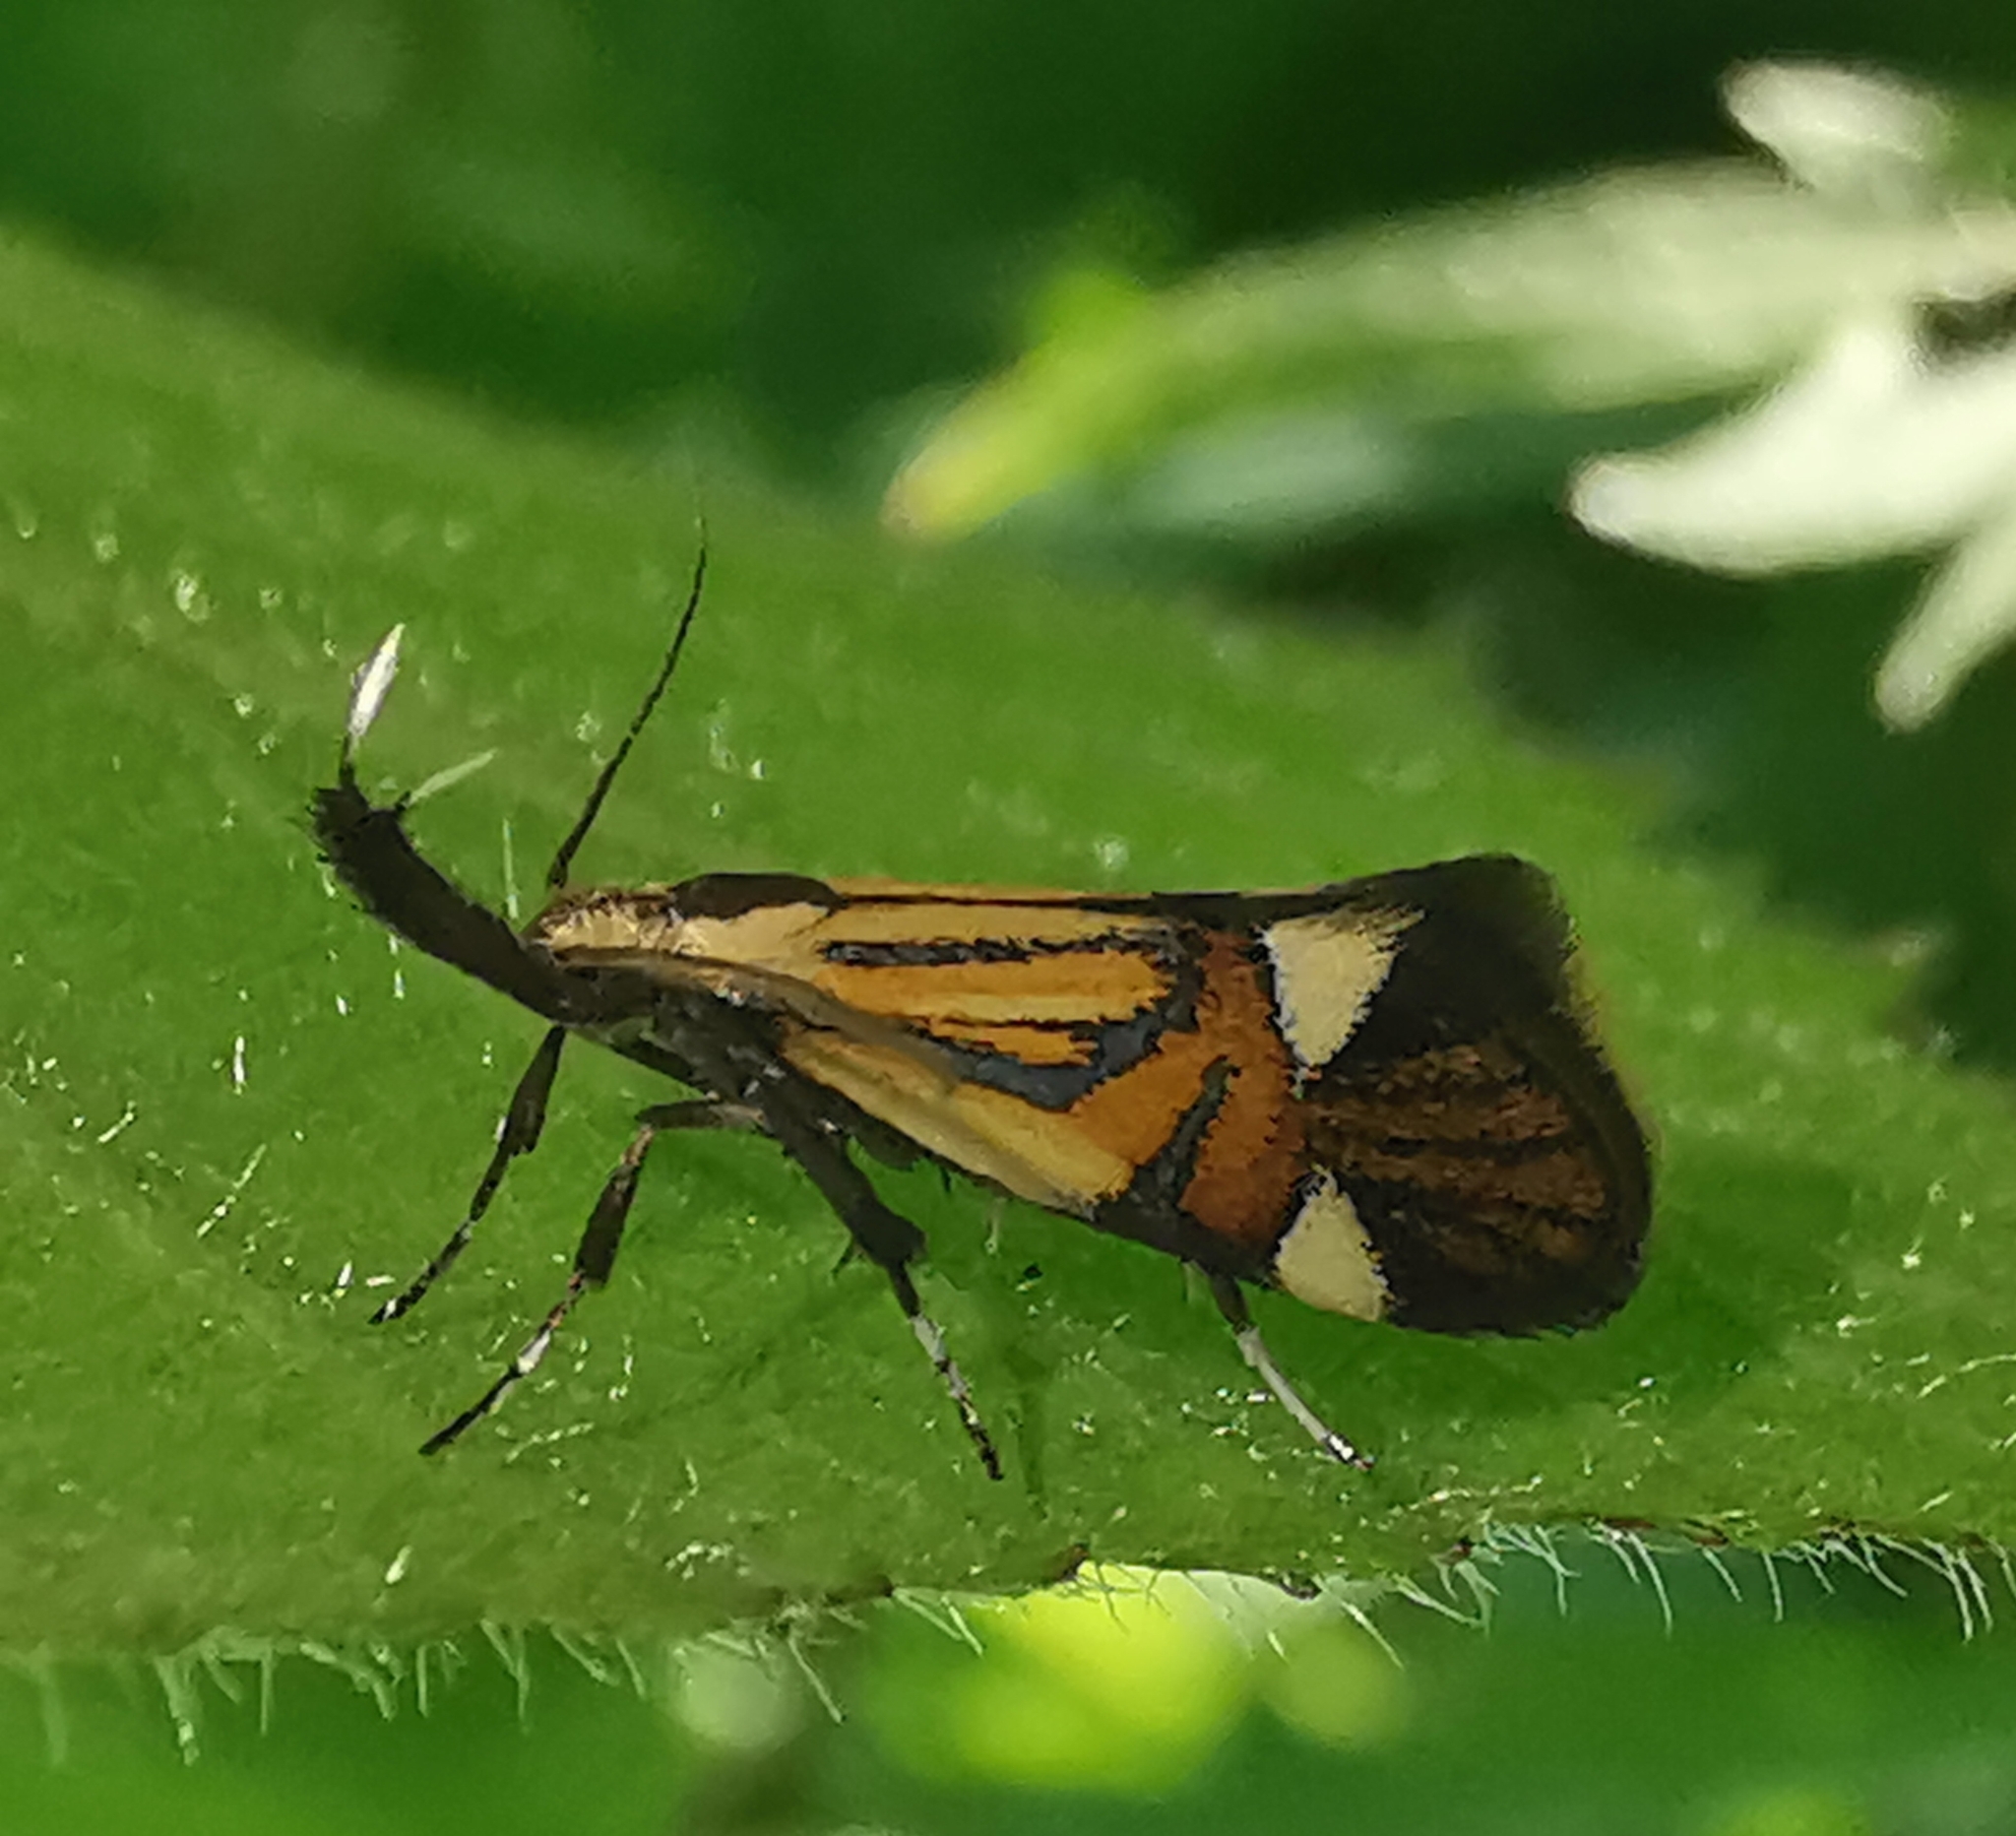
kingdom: Animalia
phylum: Arthropoda
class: Insecta
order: Lepidoptera
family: Oecophoridae
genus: Oecophora
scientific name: Oecophora Alabonia geoffrella
